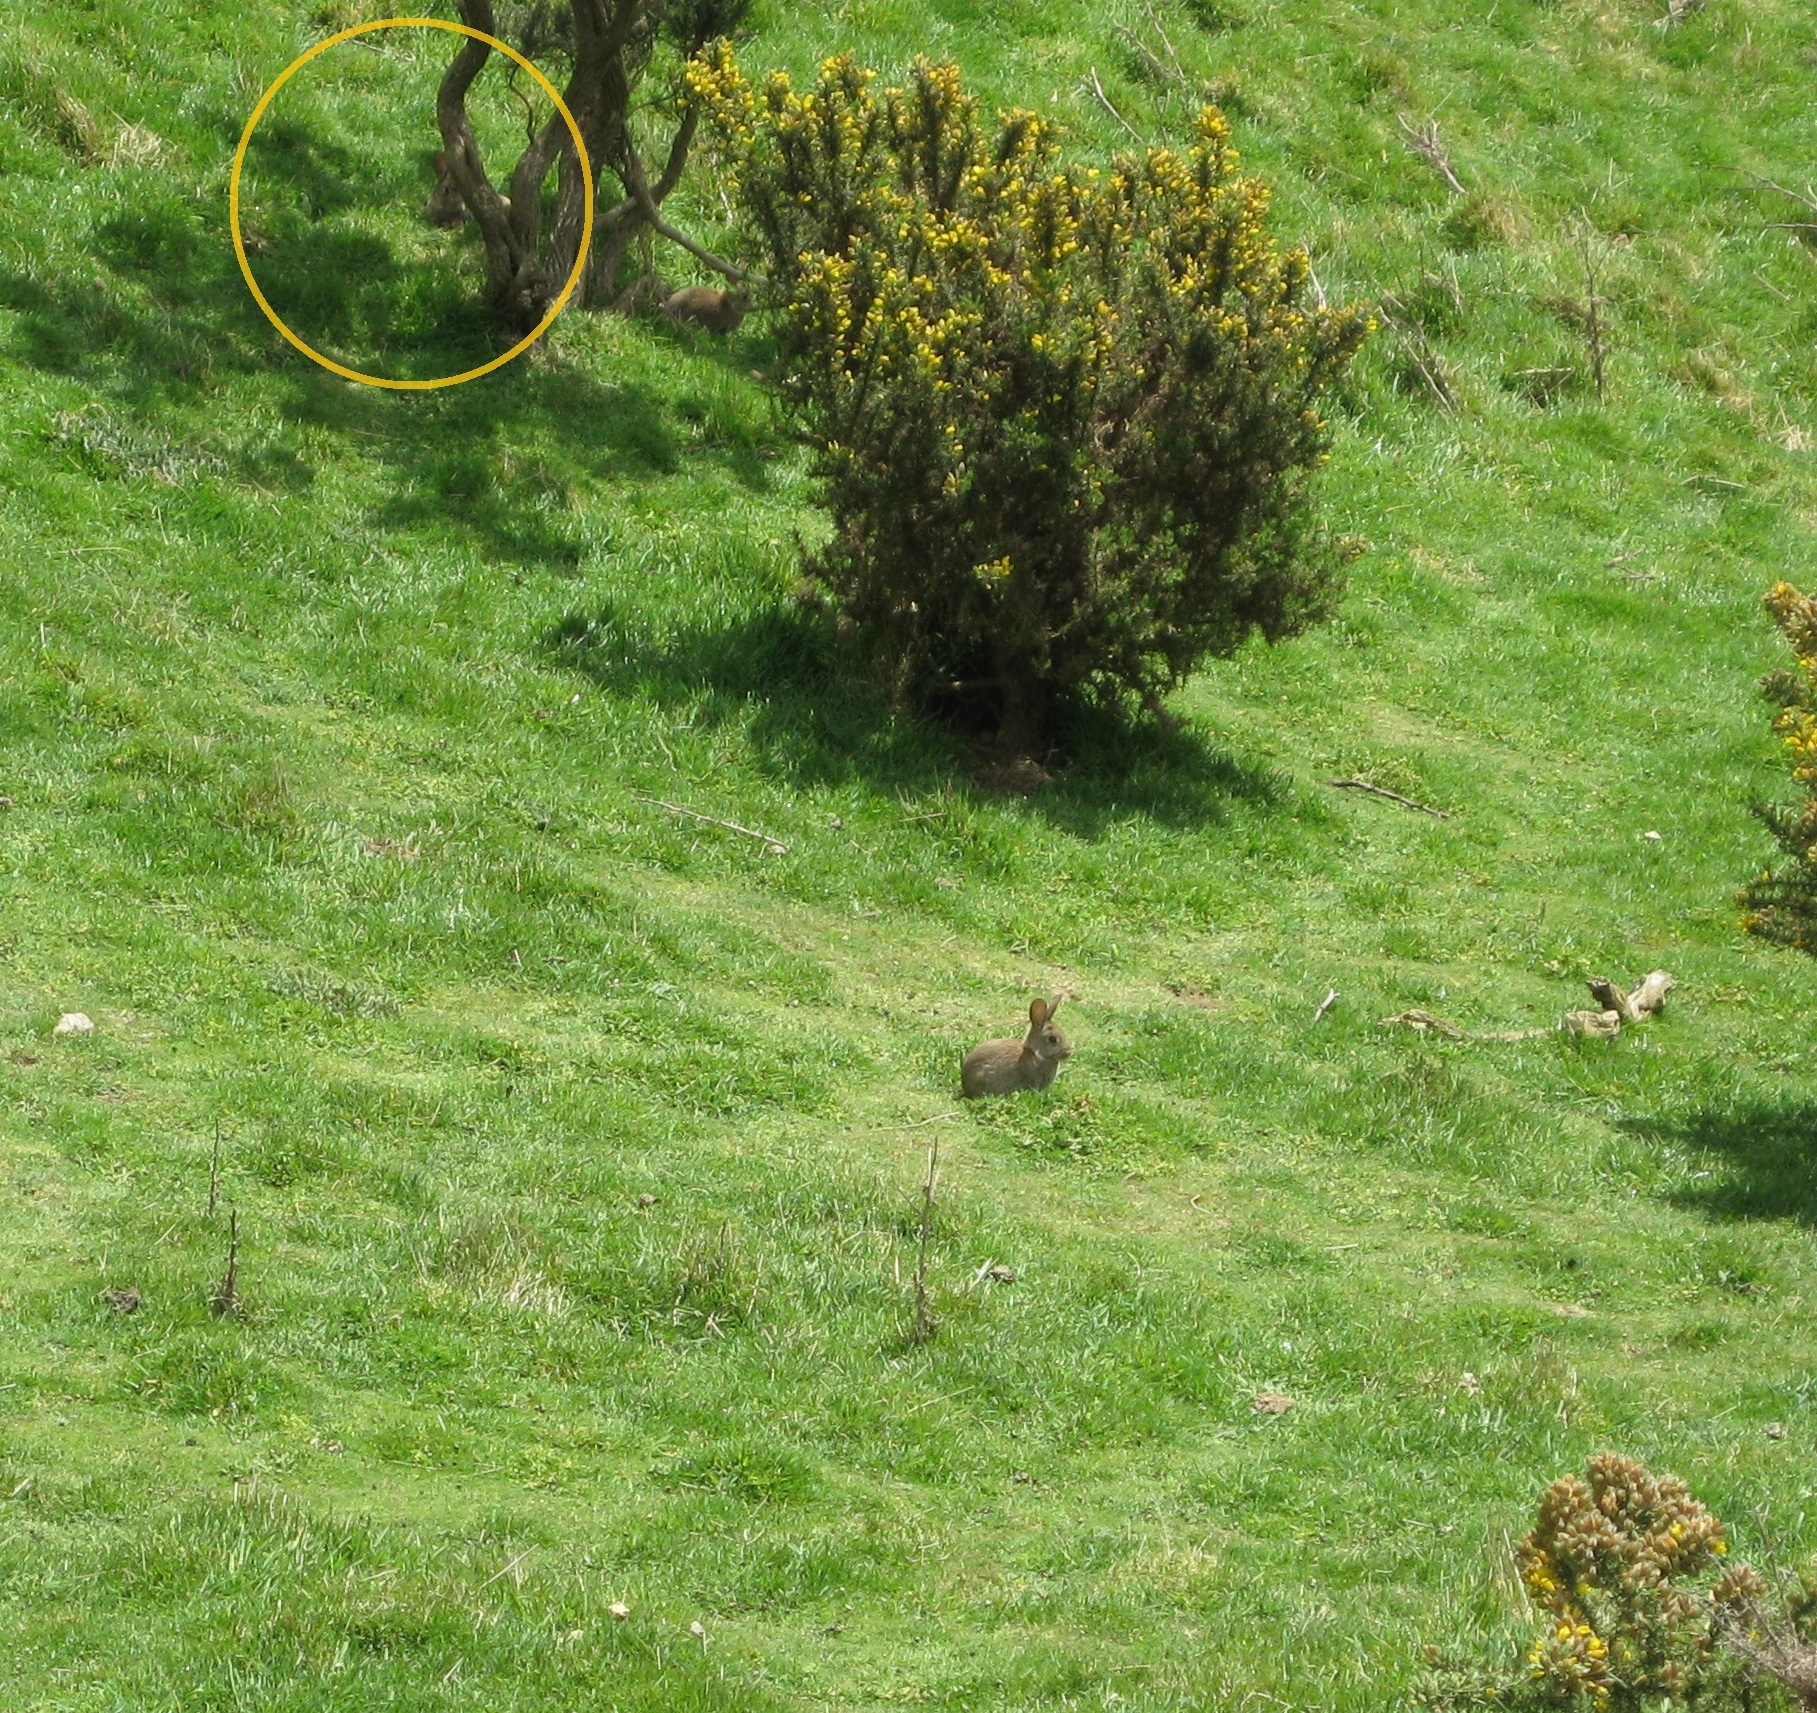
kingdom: Animalia
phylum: Chordata
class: Mammalia
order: Lagomorpha
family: Leporidae
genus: Oryctolagus
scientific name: Oryctolagus cuniculus
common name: European rabbit
